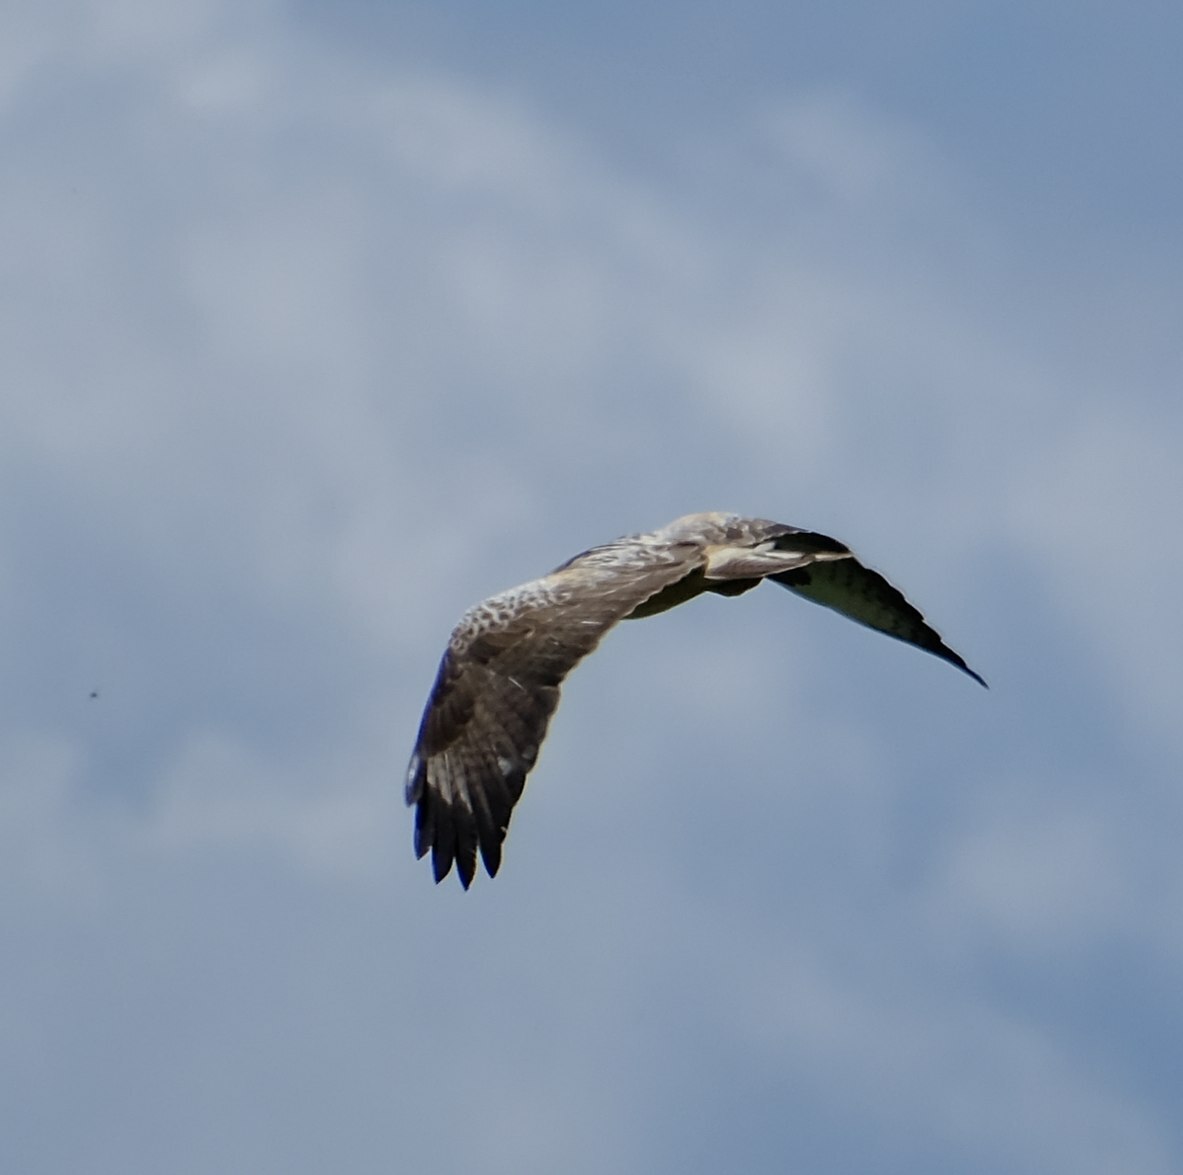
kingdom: Animalia
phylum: Chordata
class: Aves
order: Accipitriformes
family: Accipitridae
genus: Buteo
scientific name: Buteo buteo
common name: Common buzzard
